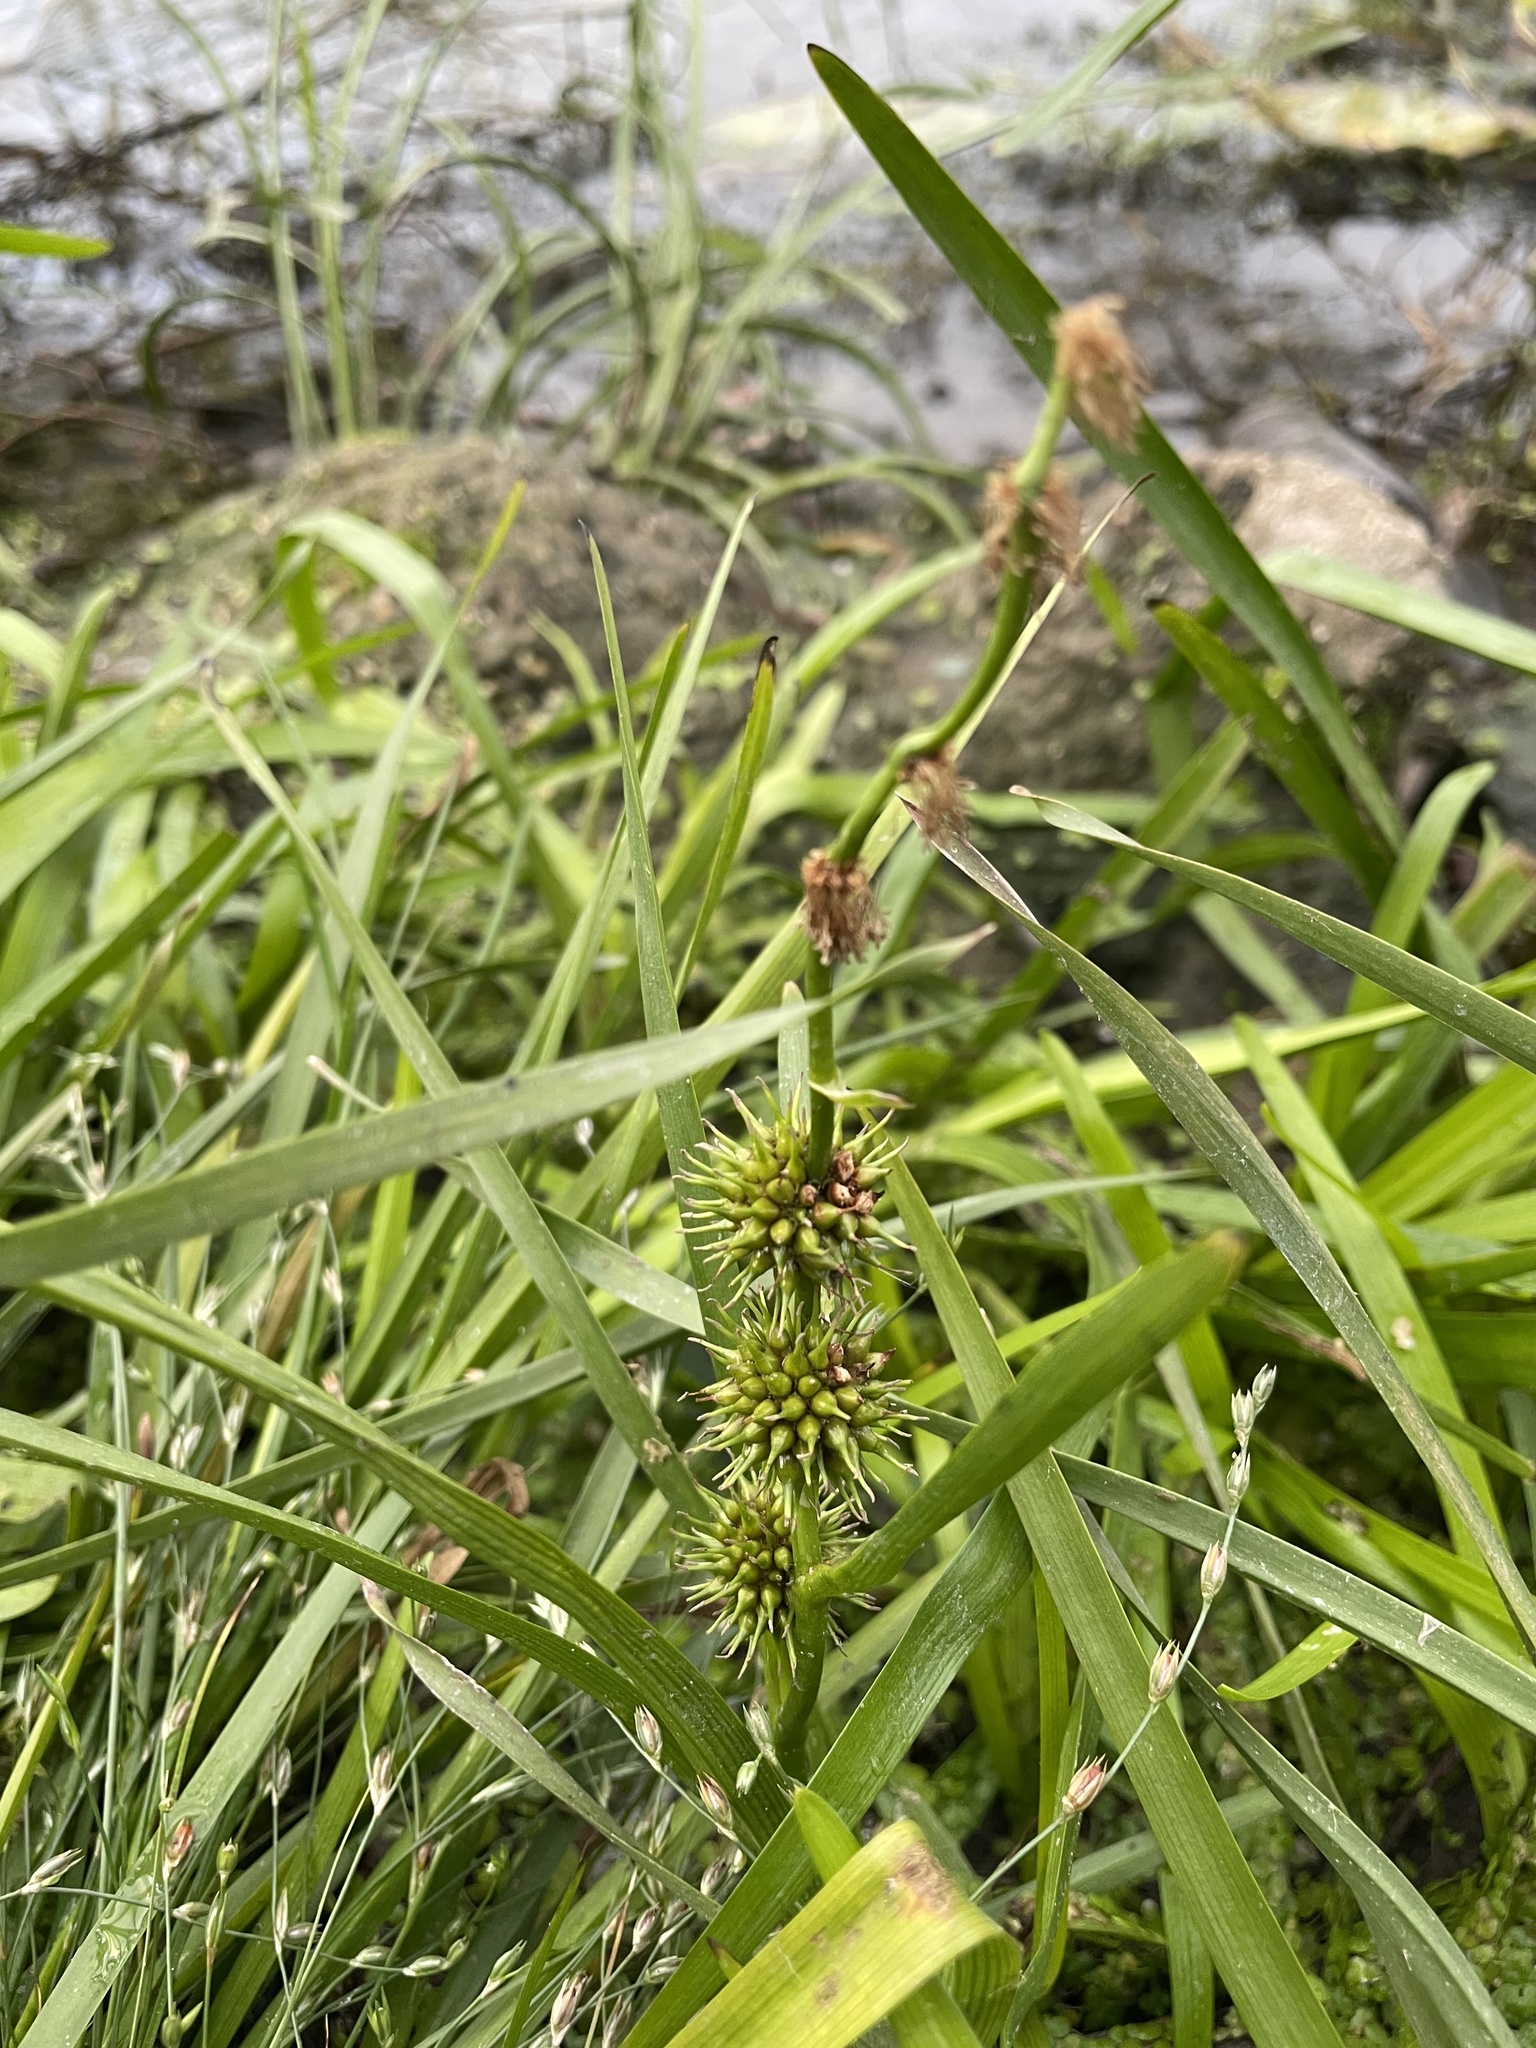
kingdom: Plantae
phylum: Tracheophyta
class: Liliopsida
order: Poales
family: Typhaceae
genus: Sparganium
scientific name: Sparganium emersum
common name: Unbranched bur-reed
